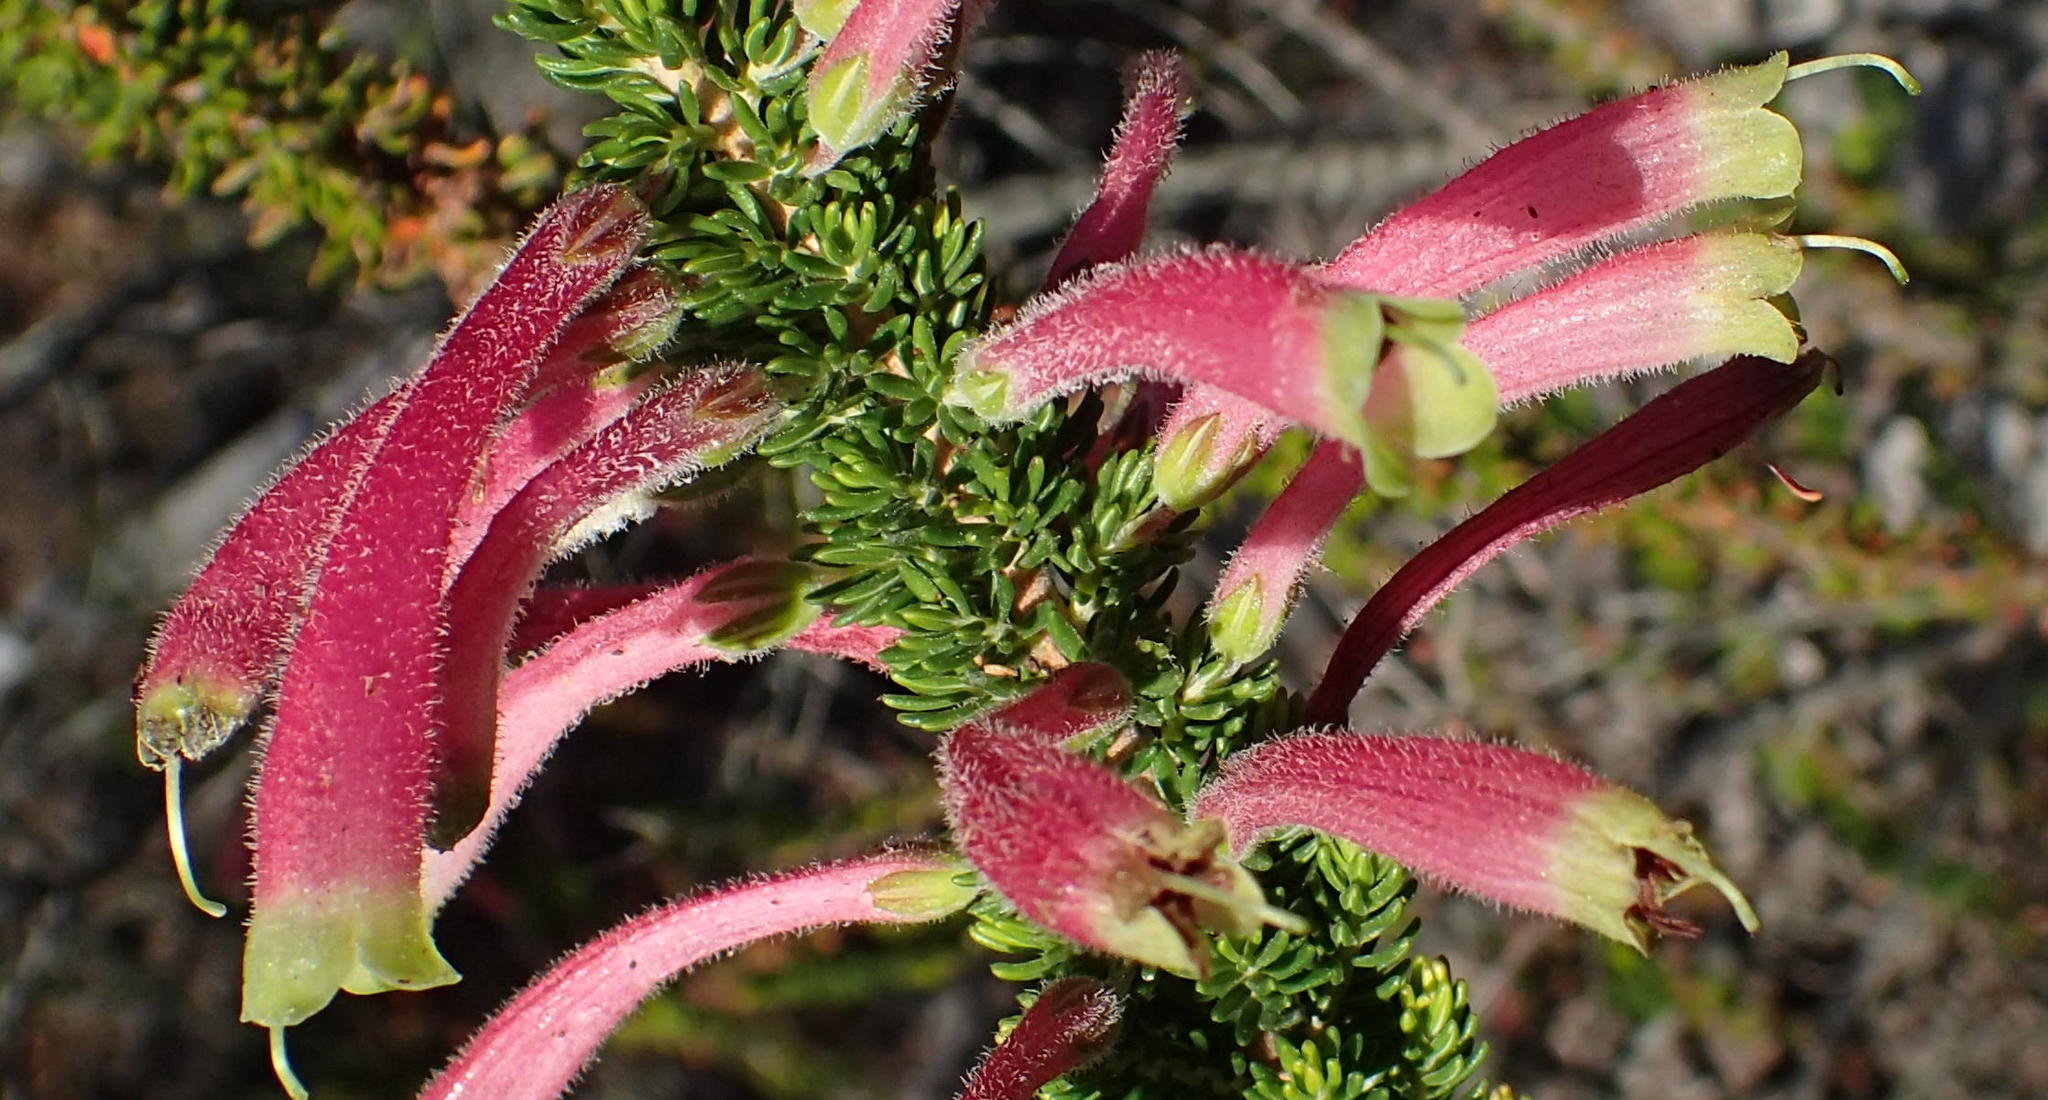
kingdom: Plantae
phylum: Tracheophyta
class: Magnoliopsida
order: Ericales
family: Ericaceae
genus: Erica
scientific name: Erica densifolia
